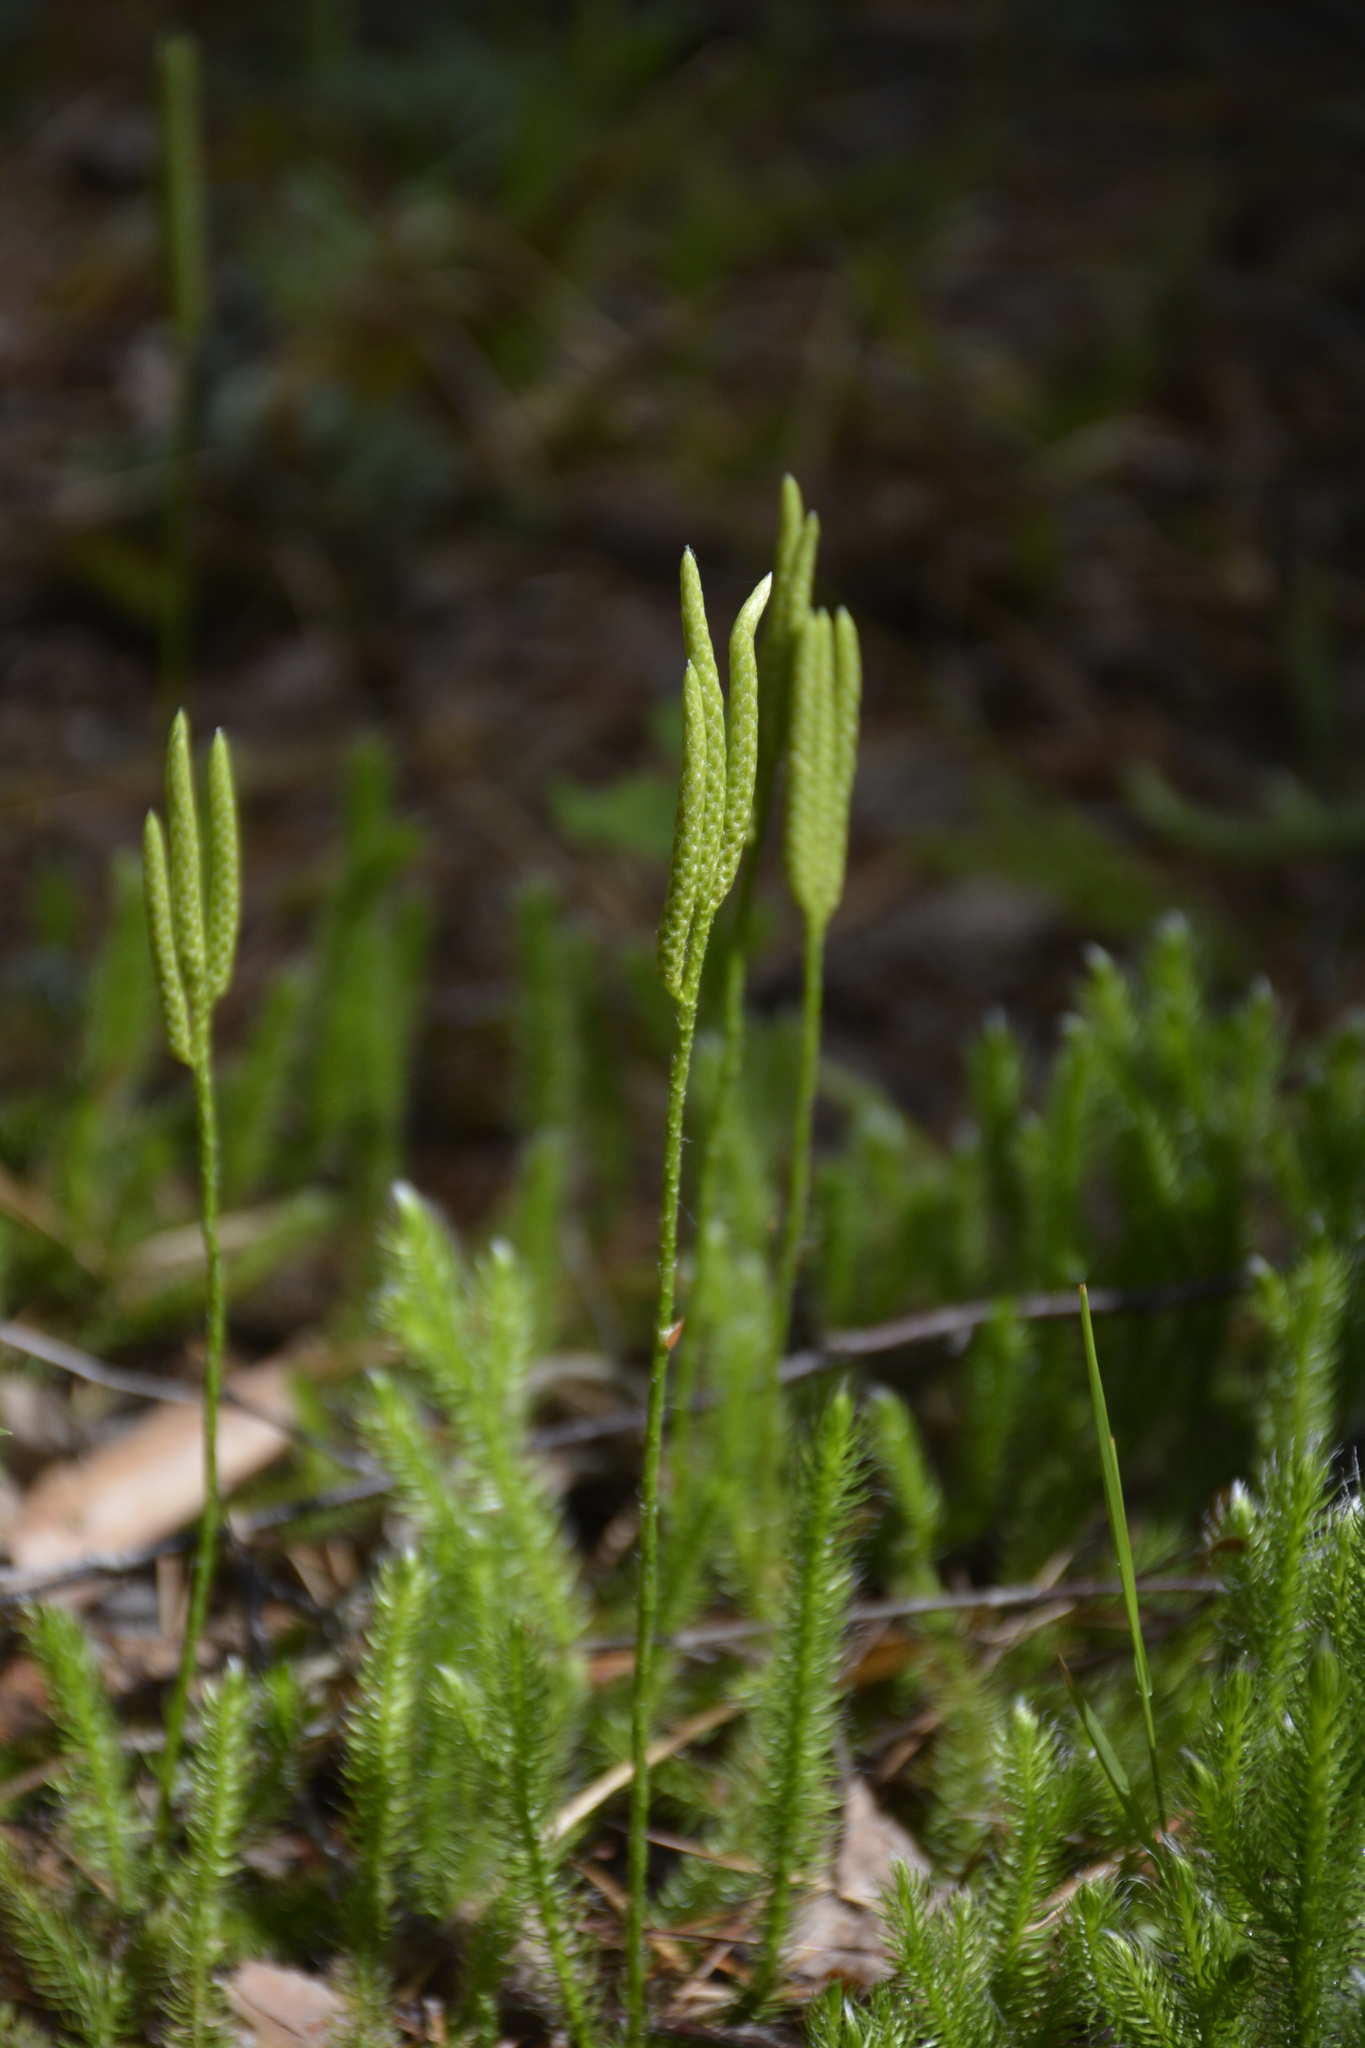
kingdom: Plantae
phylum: Tracheophyta
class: Lycopodiopsida
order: Lycopodiales
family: Lycopodiaceae
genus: Lycopodium
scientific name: Lycopodium clavatum
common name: Stag's-horn clubmoss
